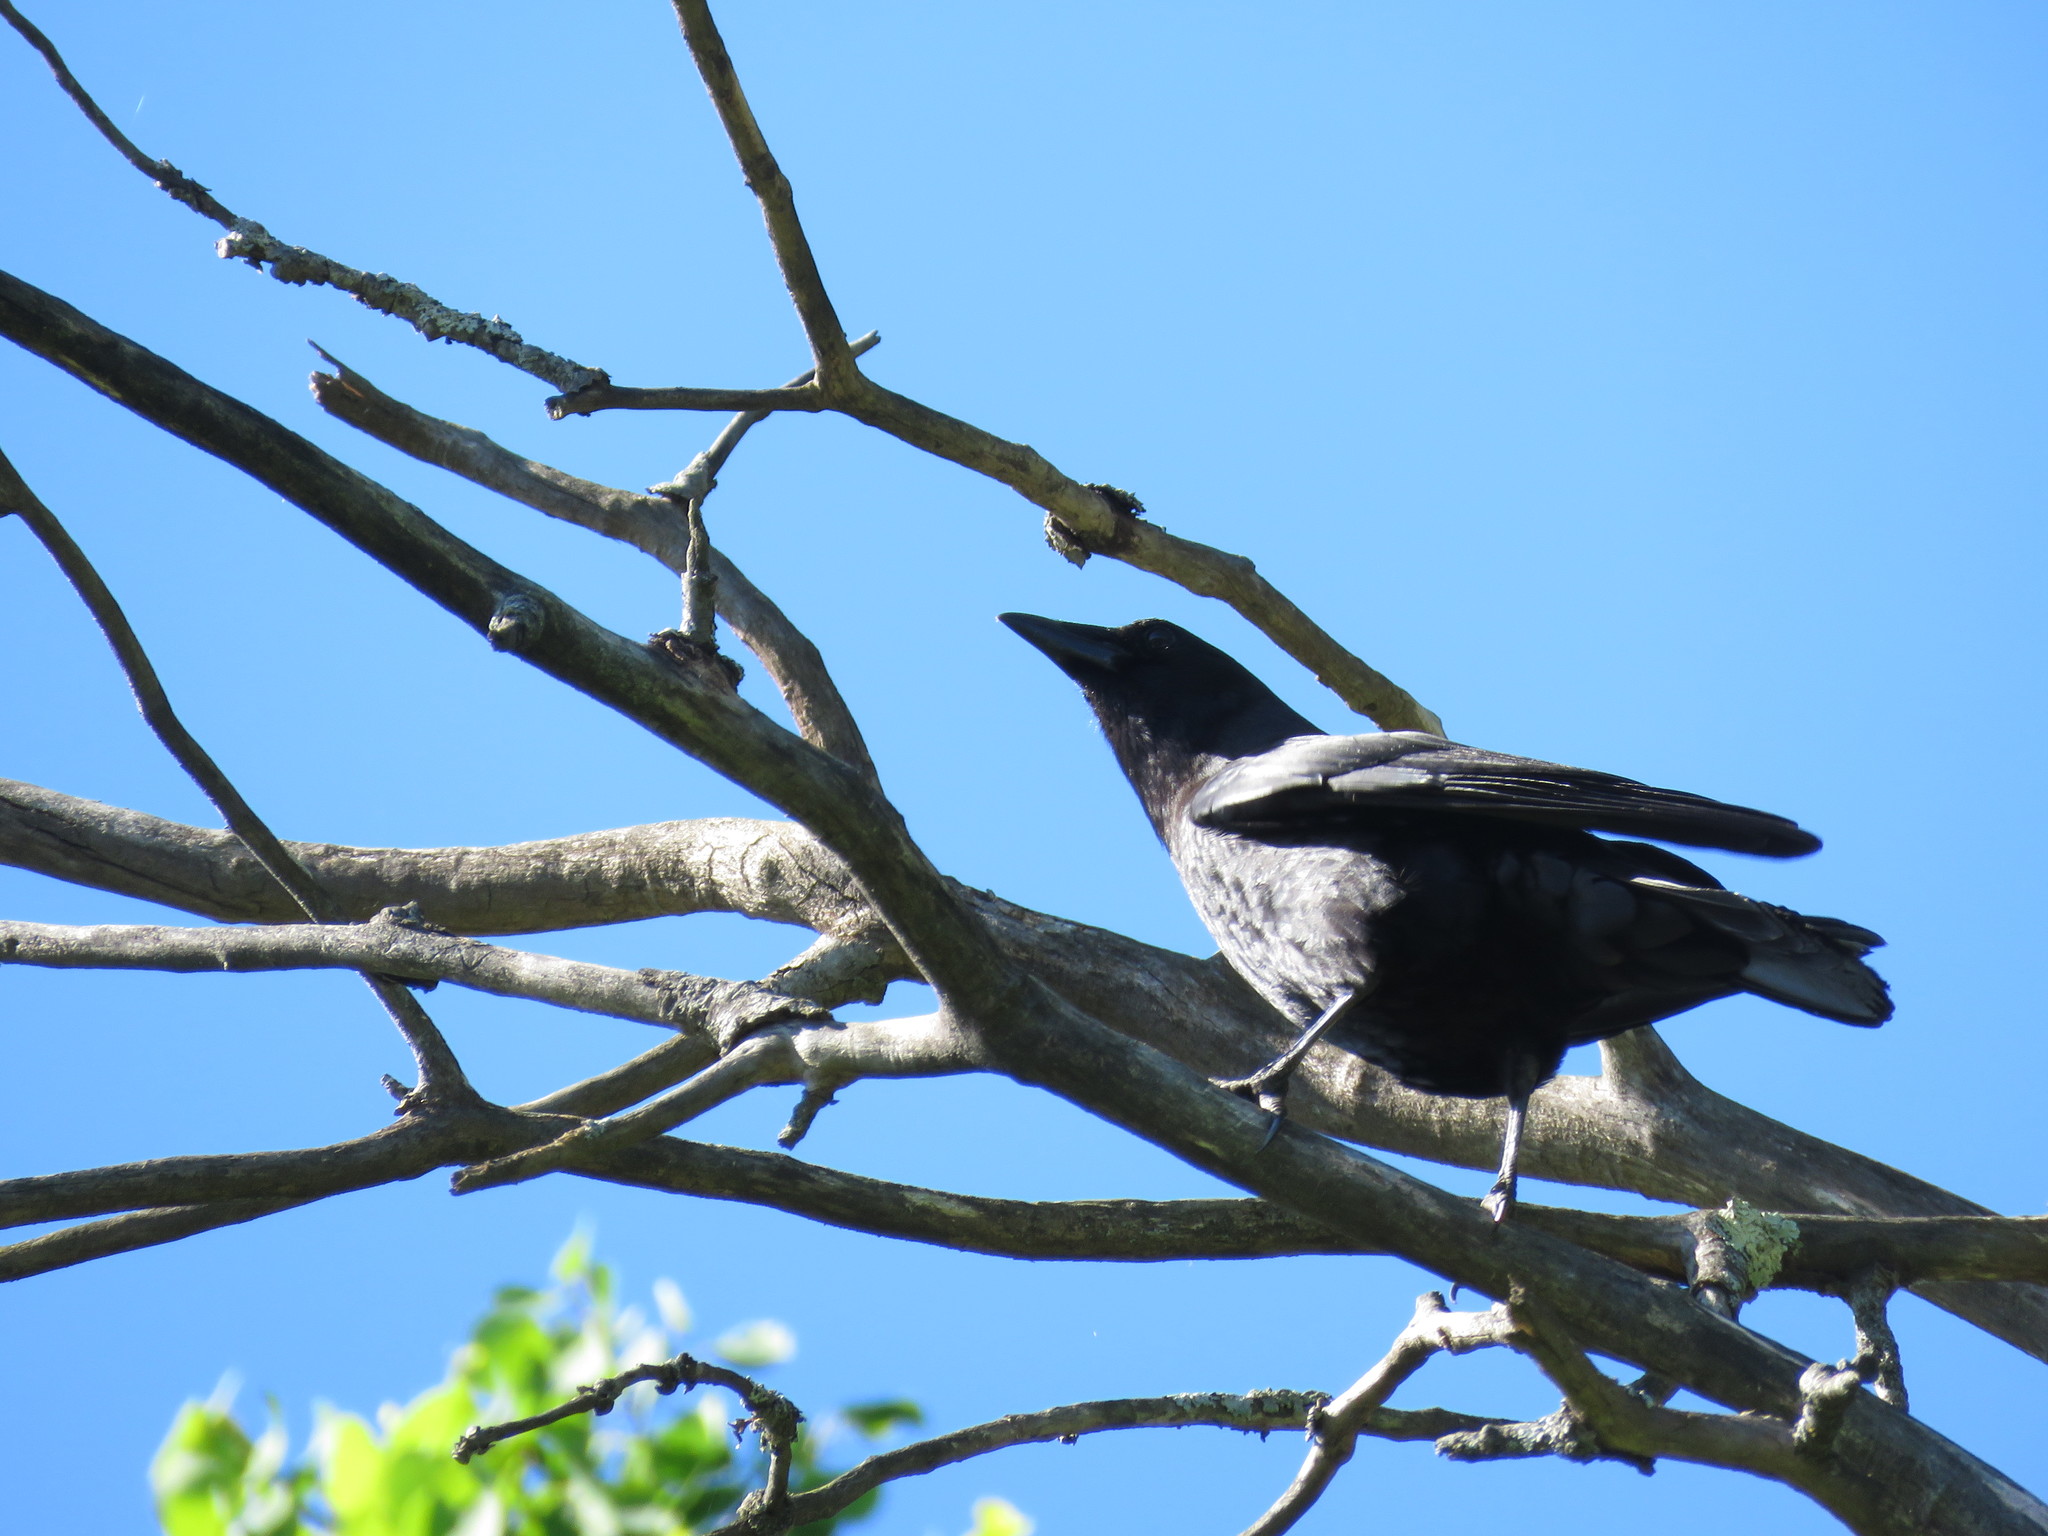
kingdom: Animalia
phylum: Chordata
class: Aves
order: Passeriformes
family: Corvidae
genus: Corvus
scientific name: Corvus brachyrhynchos
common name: American crow
